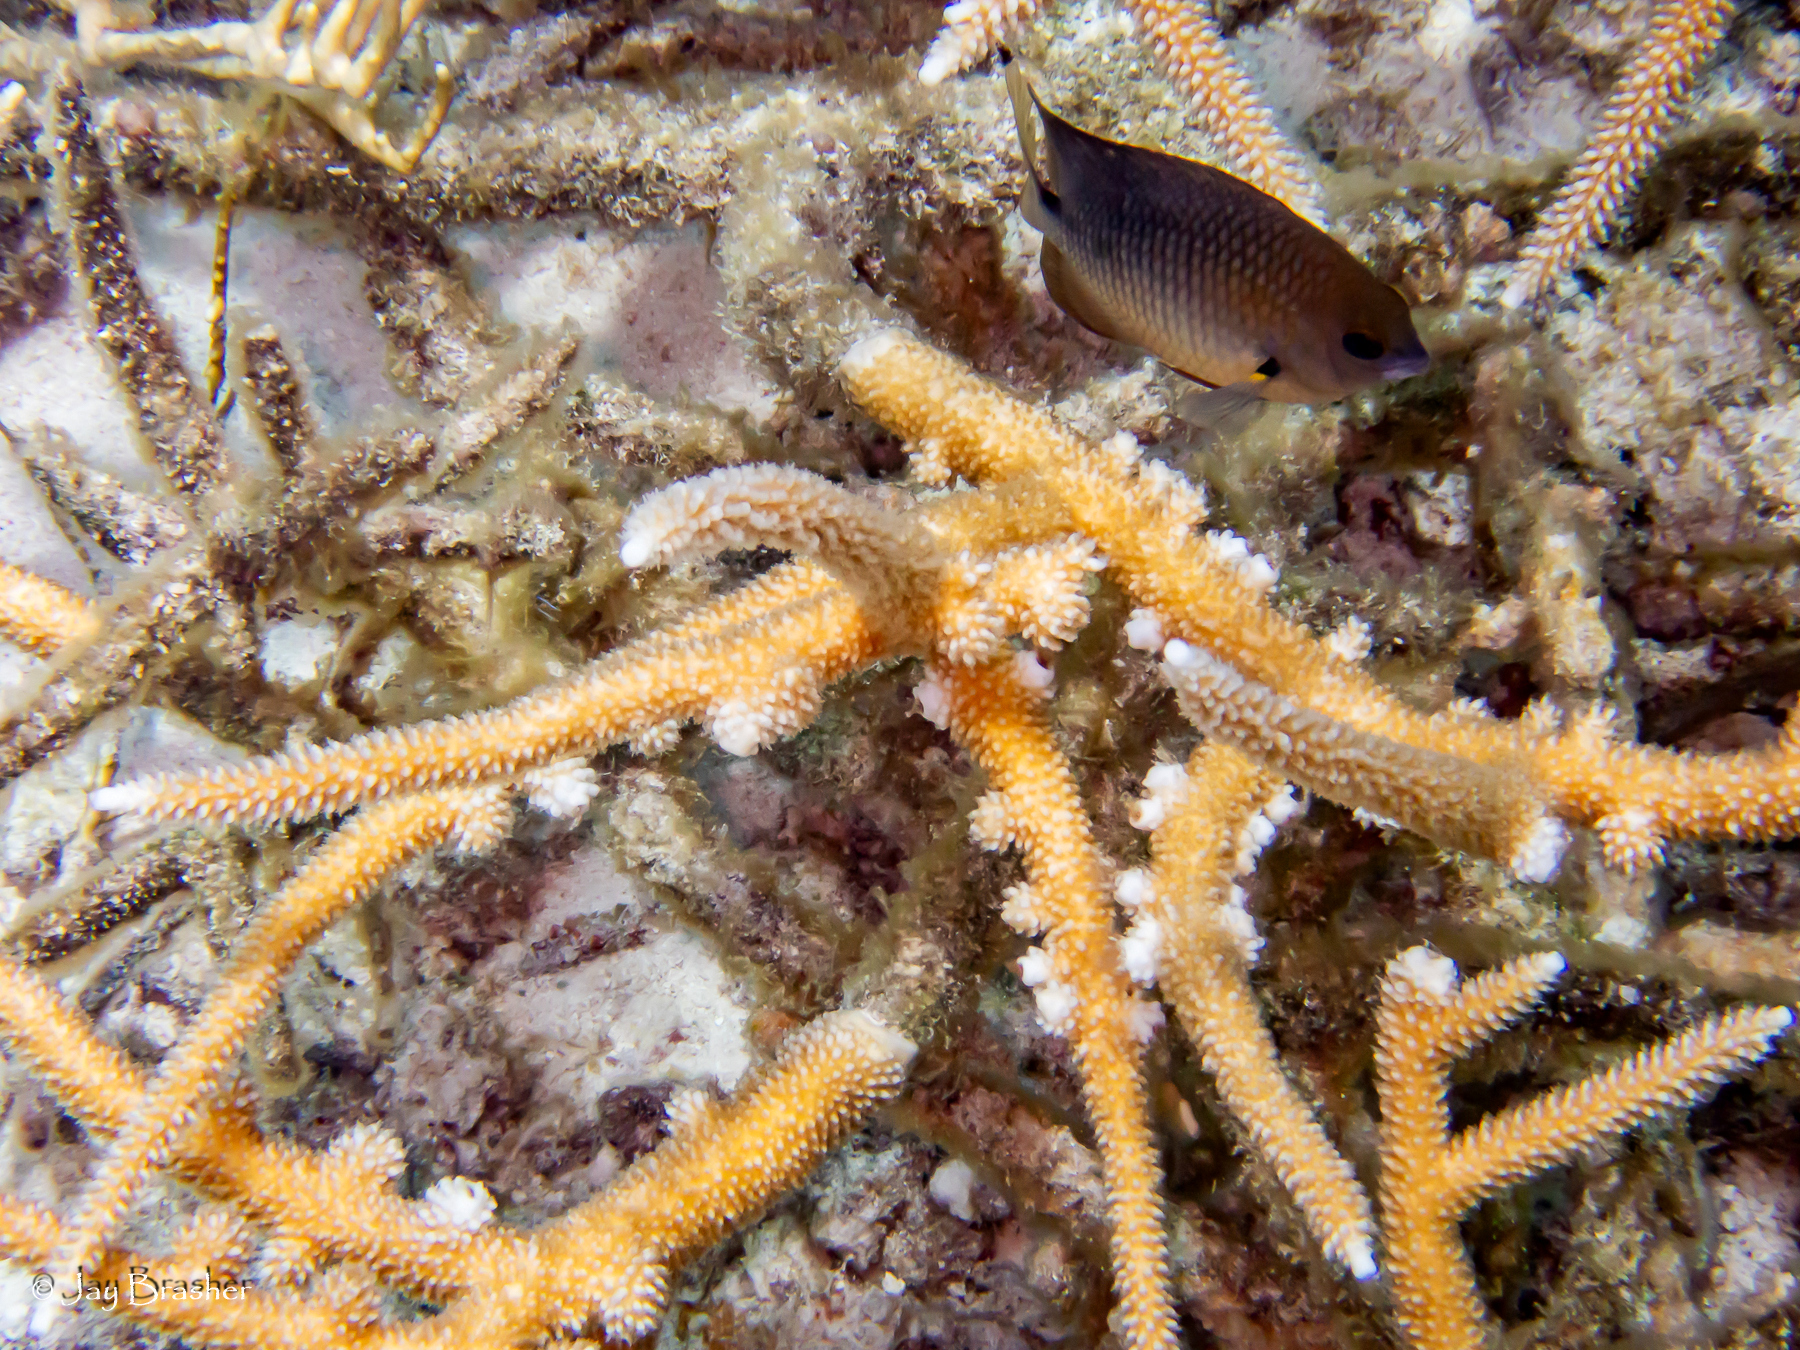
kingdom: Animalia
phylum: Chordata
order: Perciformes
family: Pomacentridae
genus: Stegastes
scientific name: Stegastes planifrons
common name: Threespot damselfish
